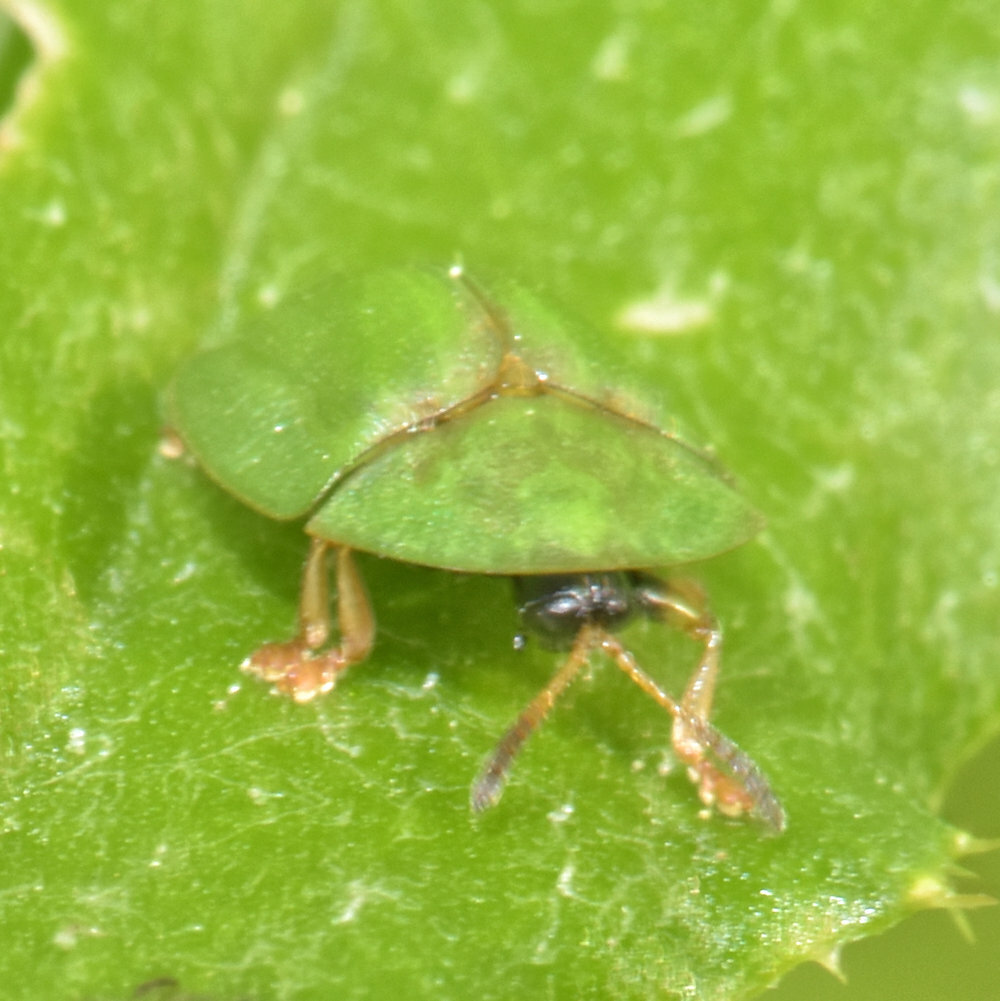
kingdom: Animalia
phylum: Arthropoda
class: Insecta
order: Coleoptera
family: Chrysomelidae
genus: Cassida
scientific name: Cassida rubiginosa
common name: Thistle tortoise beetle
